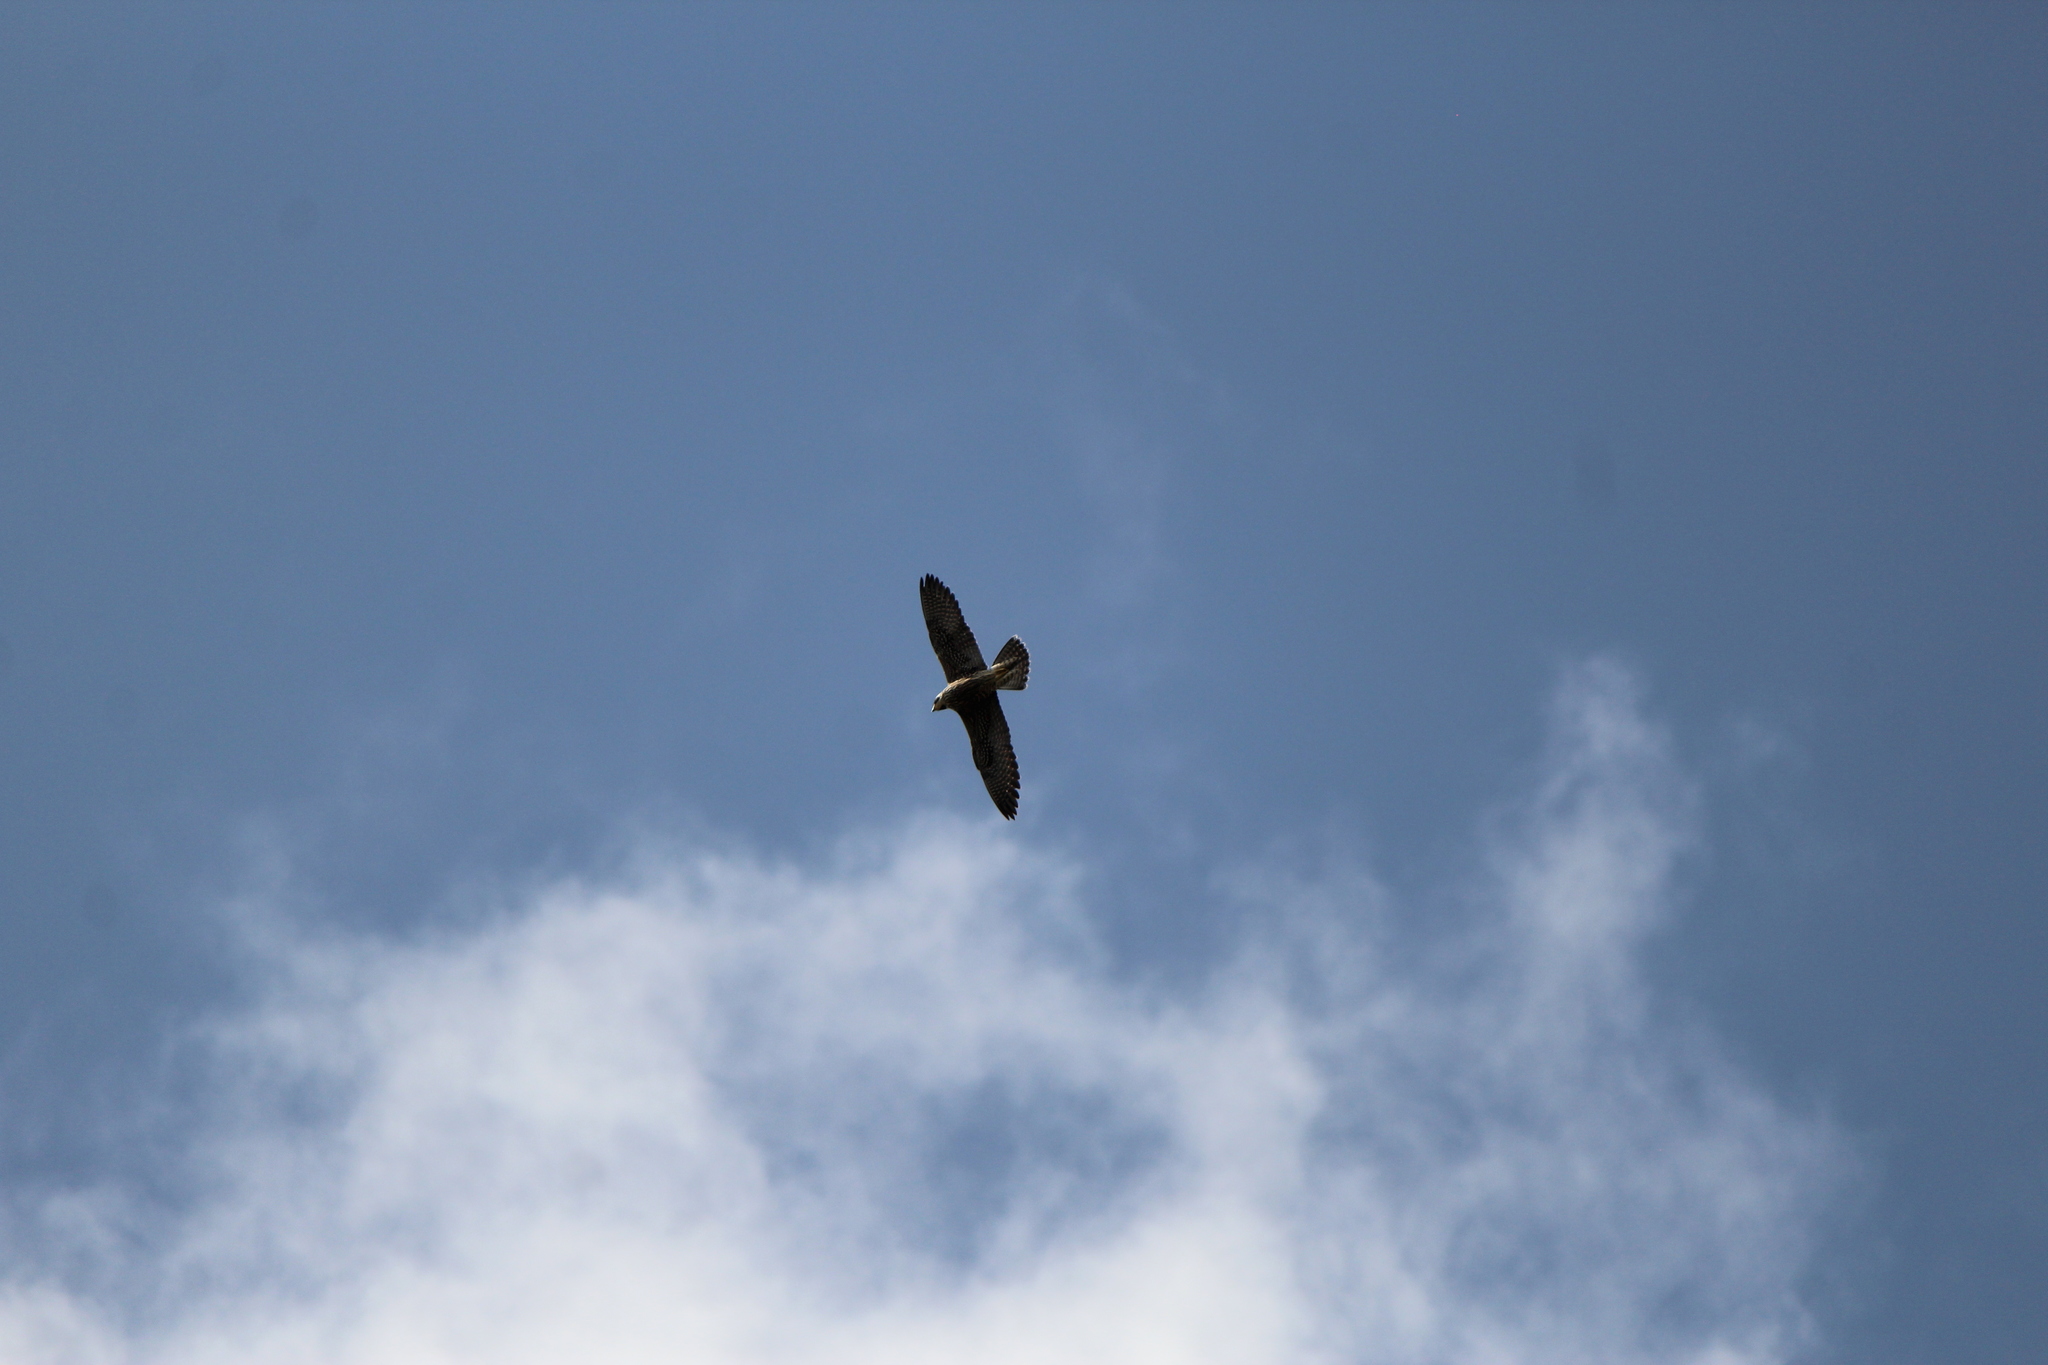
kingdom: Animalia
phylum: Chordata
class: Aves
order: Falconiformes
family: Falconidae
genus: Falco
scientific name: Falco peregrinus
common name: Peregrine falcon
